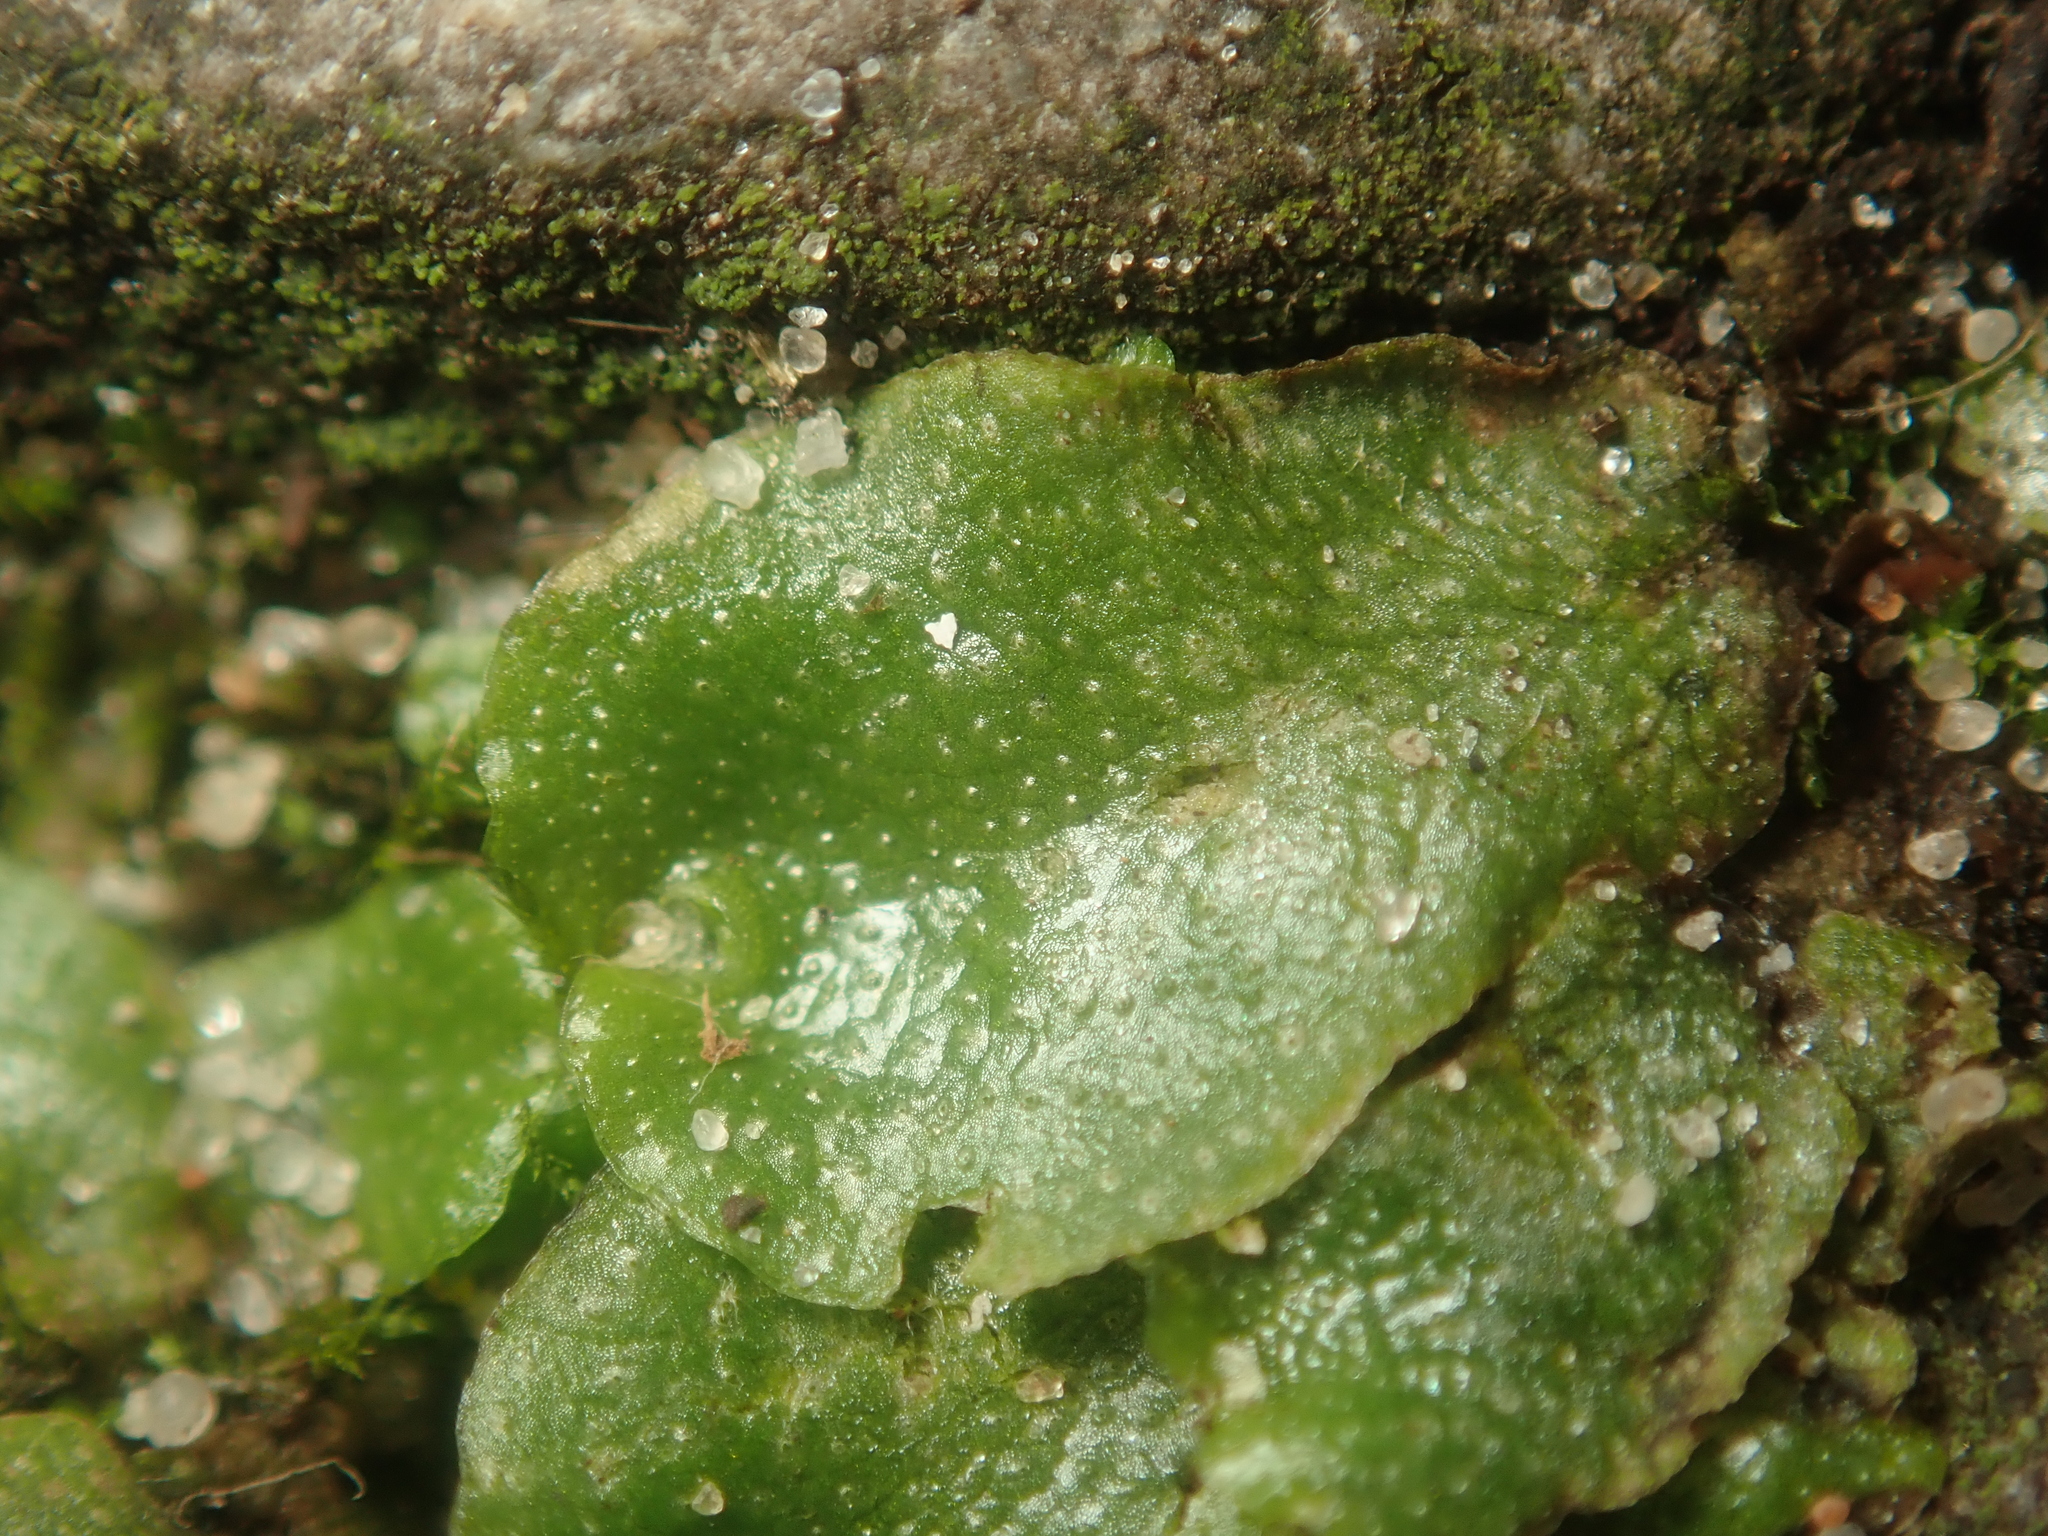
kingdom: Plantae
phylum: Marchantiophyta
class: Marchantiopsida
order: Lunulariales
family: Lunulariaceae
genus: Lunularia
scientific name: Lunularia cruciata
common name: Crescent-cup liverwort
